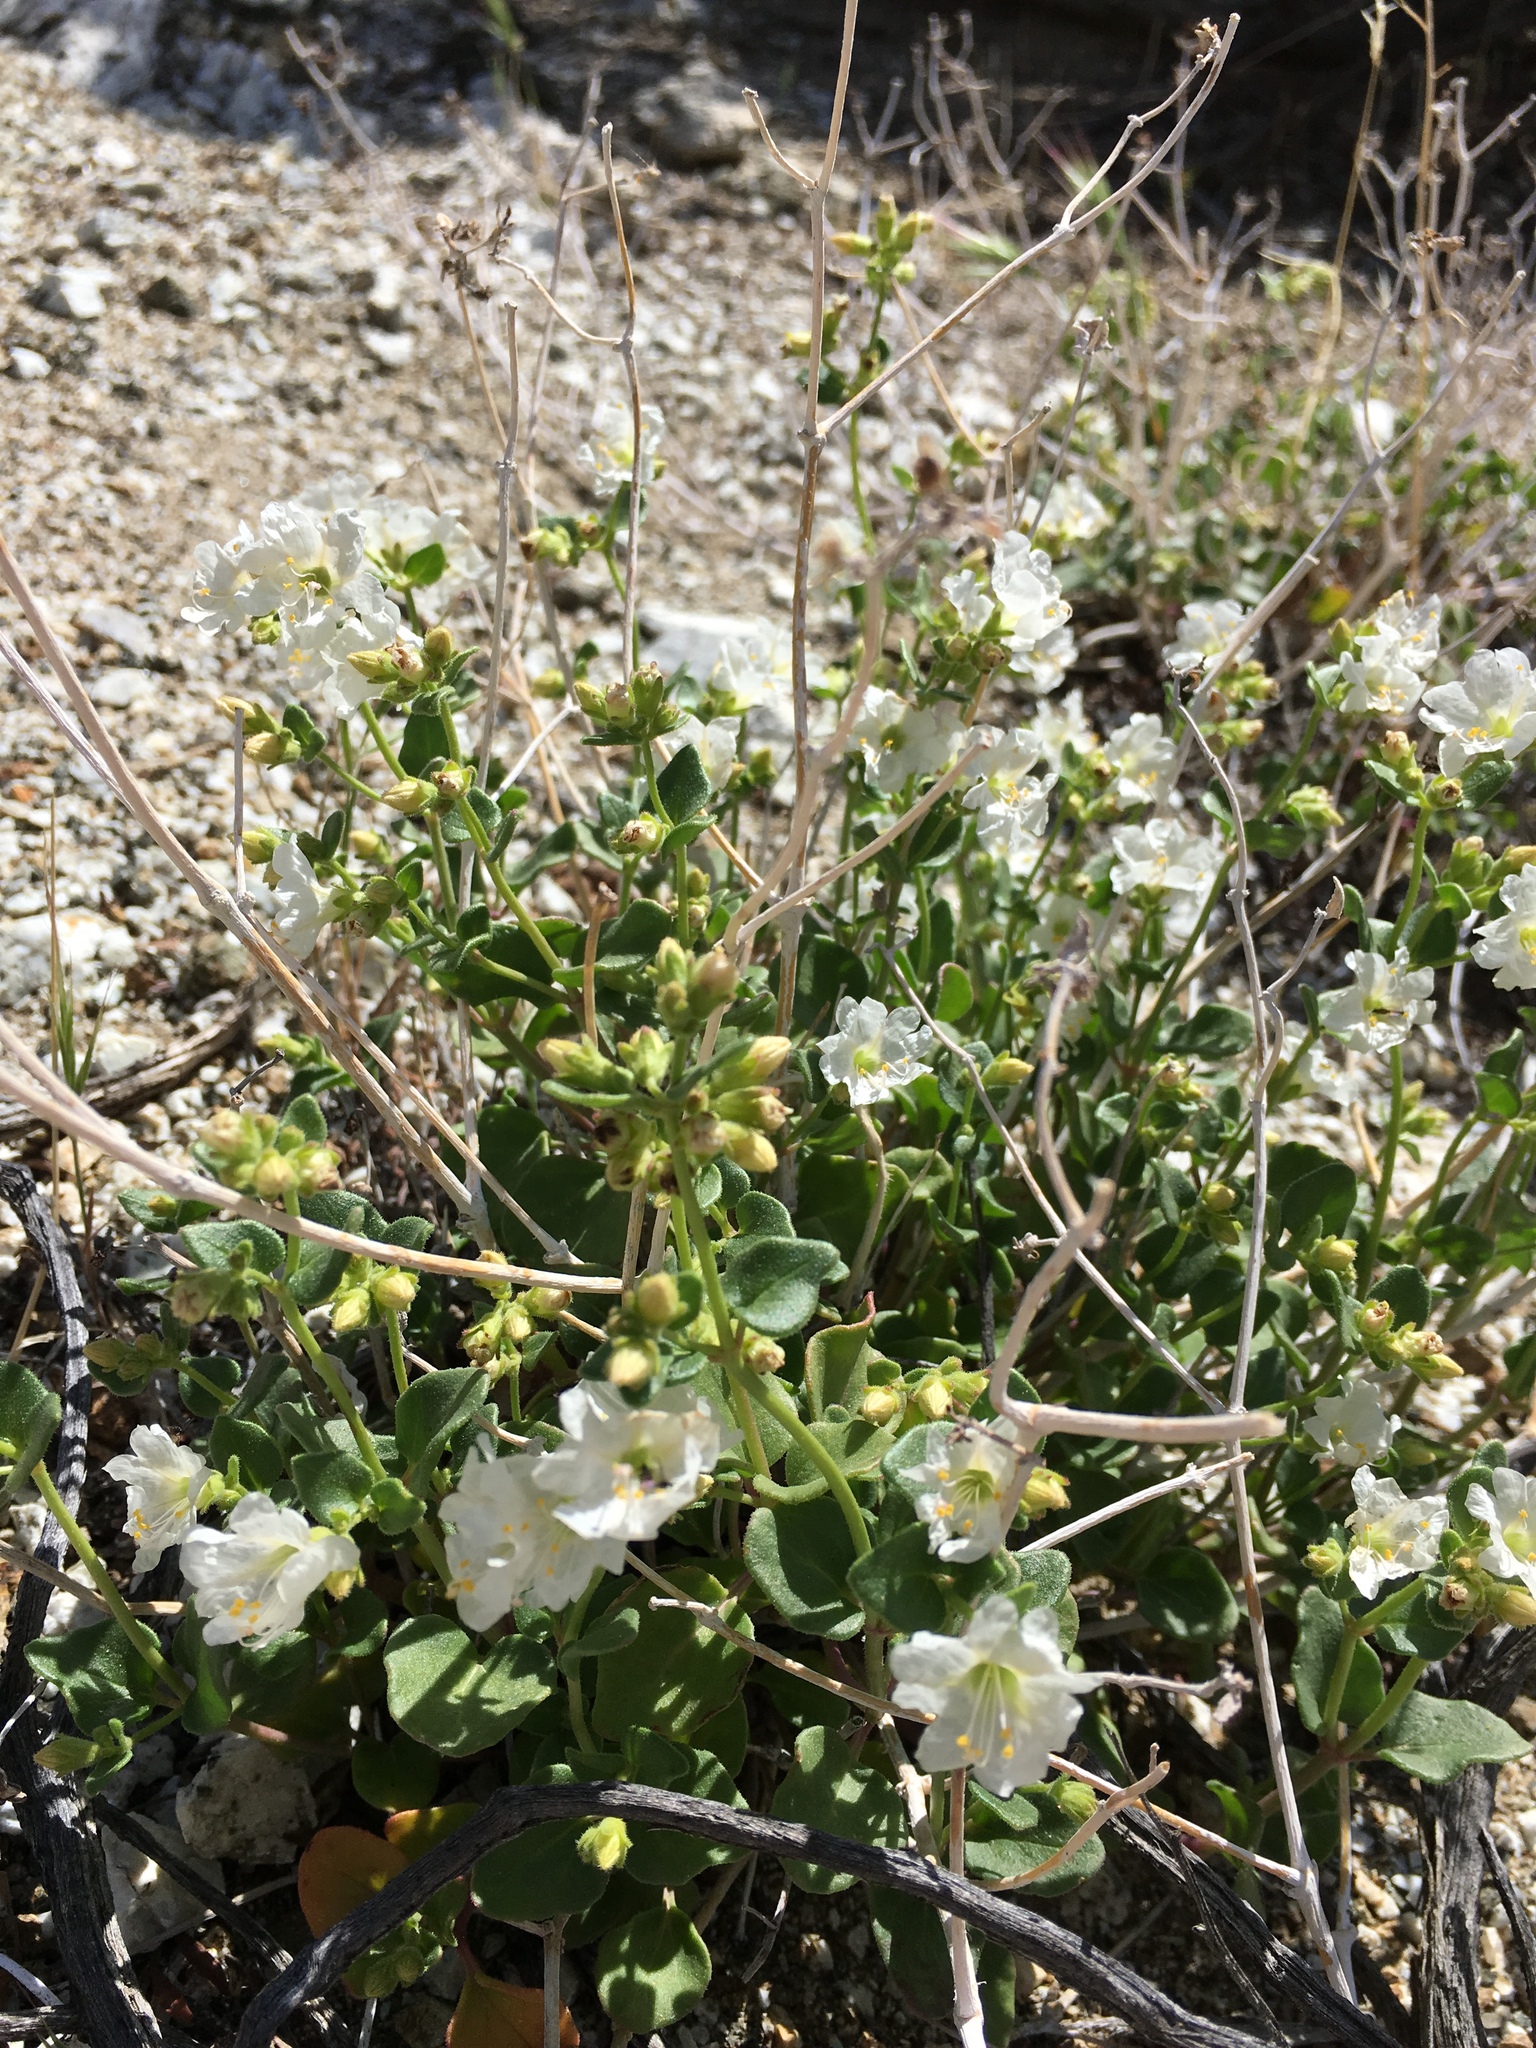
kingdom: Plantae
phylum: Tracheophyta
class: Magnoliopsida
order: Caryophyllales
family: Nyctaginaceae
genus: Mirabilis
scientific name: Mirabilis laevis
